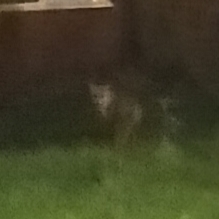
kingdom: Animalia
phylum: Chordata
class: Mammalia
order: Carnivora
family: Canidae
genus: Vulpes
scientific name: Vulpes vulpes
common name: Red fox
